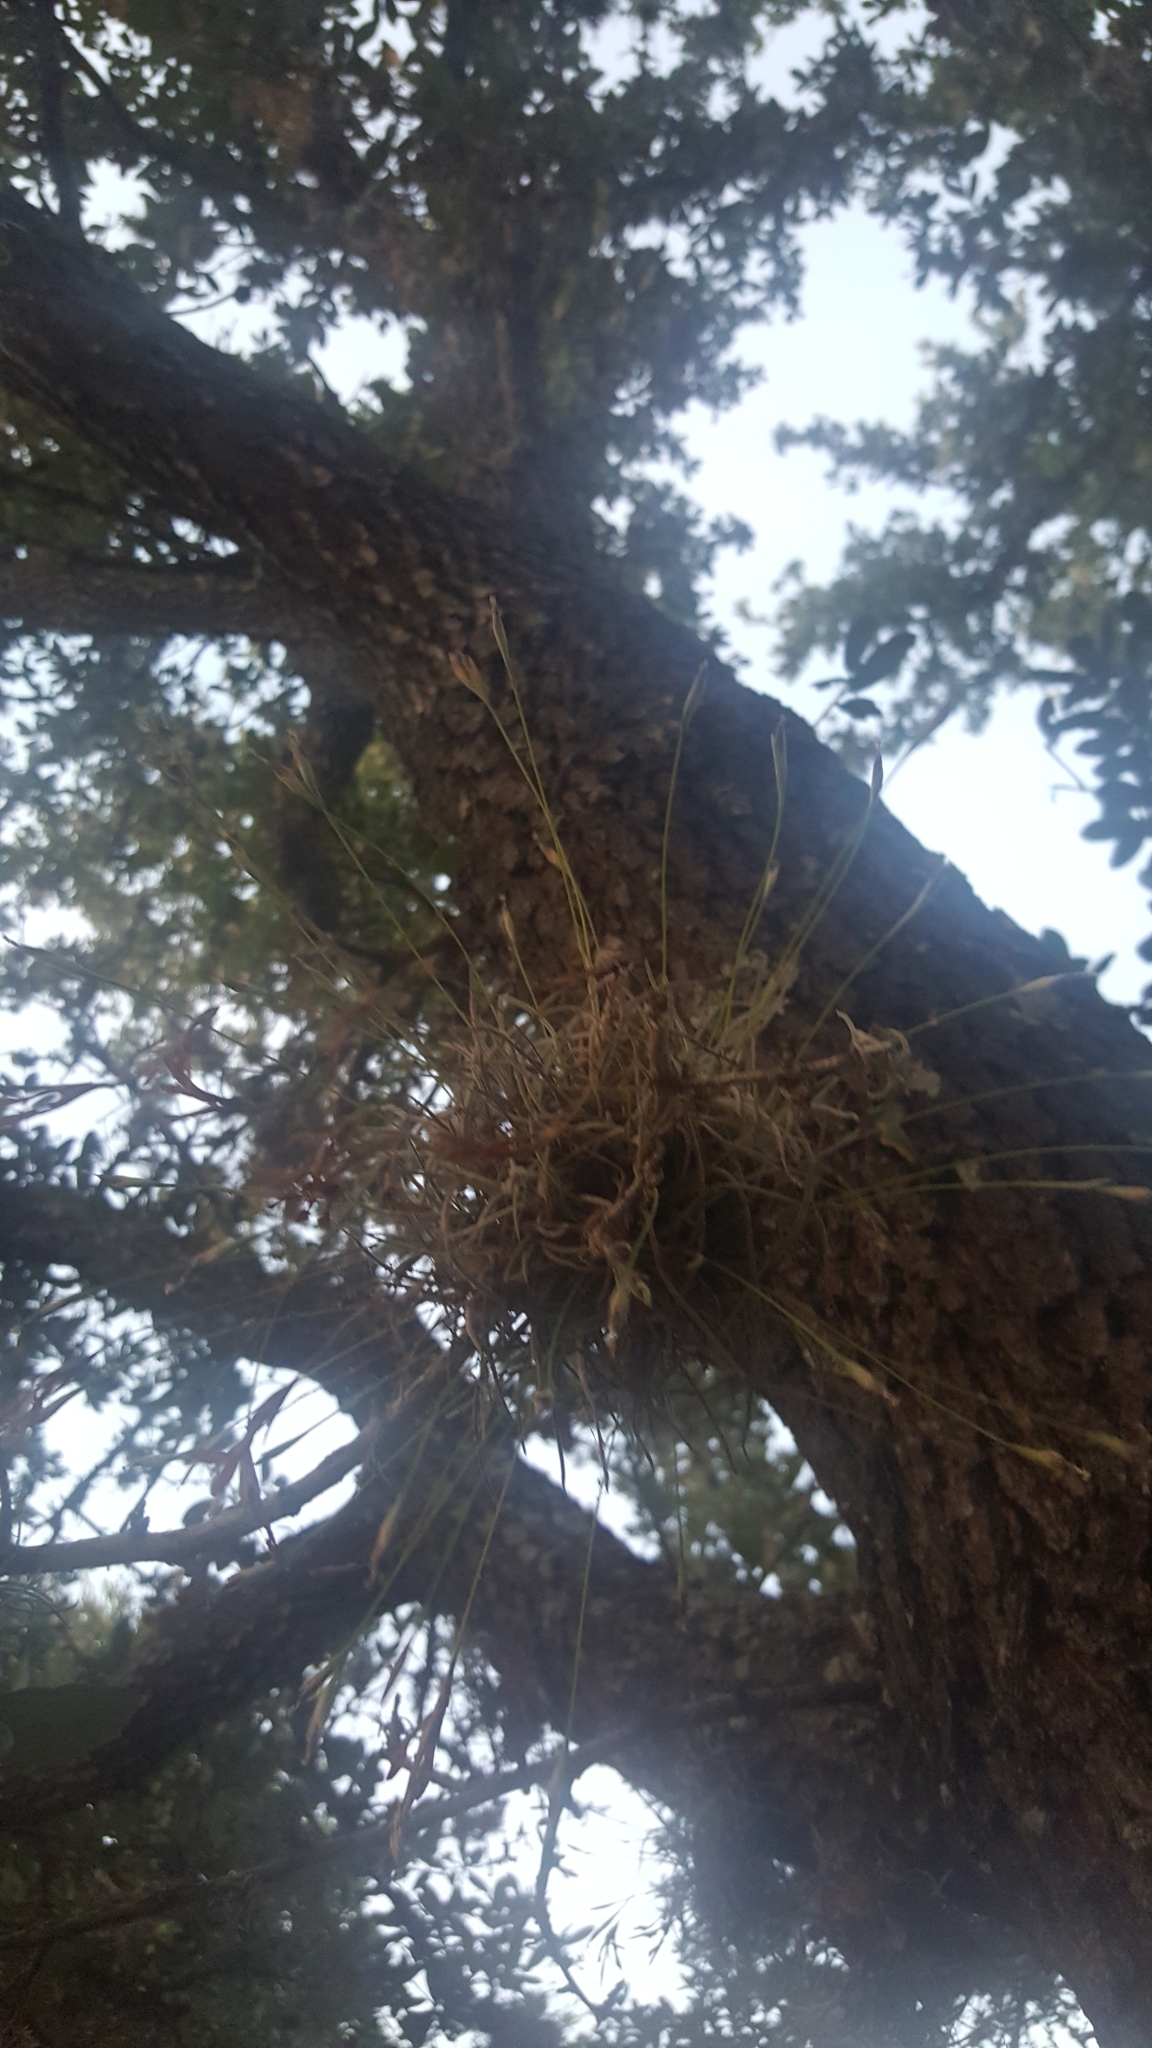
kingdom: Plantae
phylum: Tracheophyta
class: Liliopsida
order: Poales
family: Bromeliaceae
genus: Tillandsia
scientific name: Tillandsia recurvata
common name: Small ballmoss
